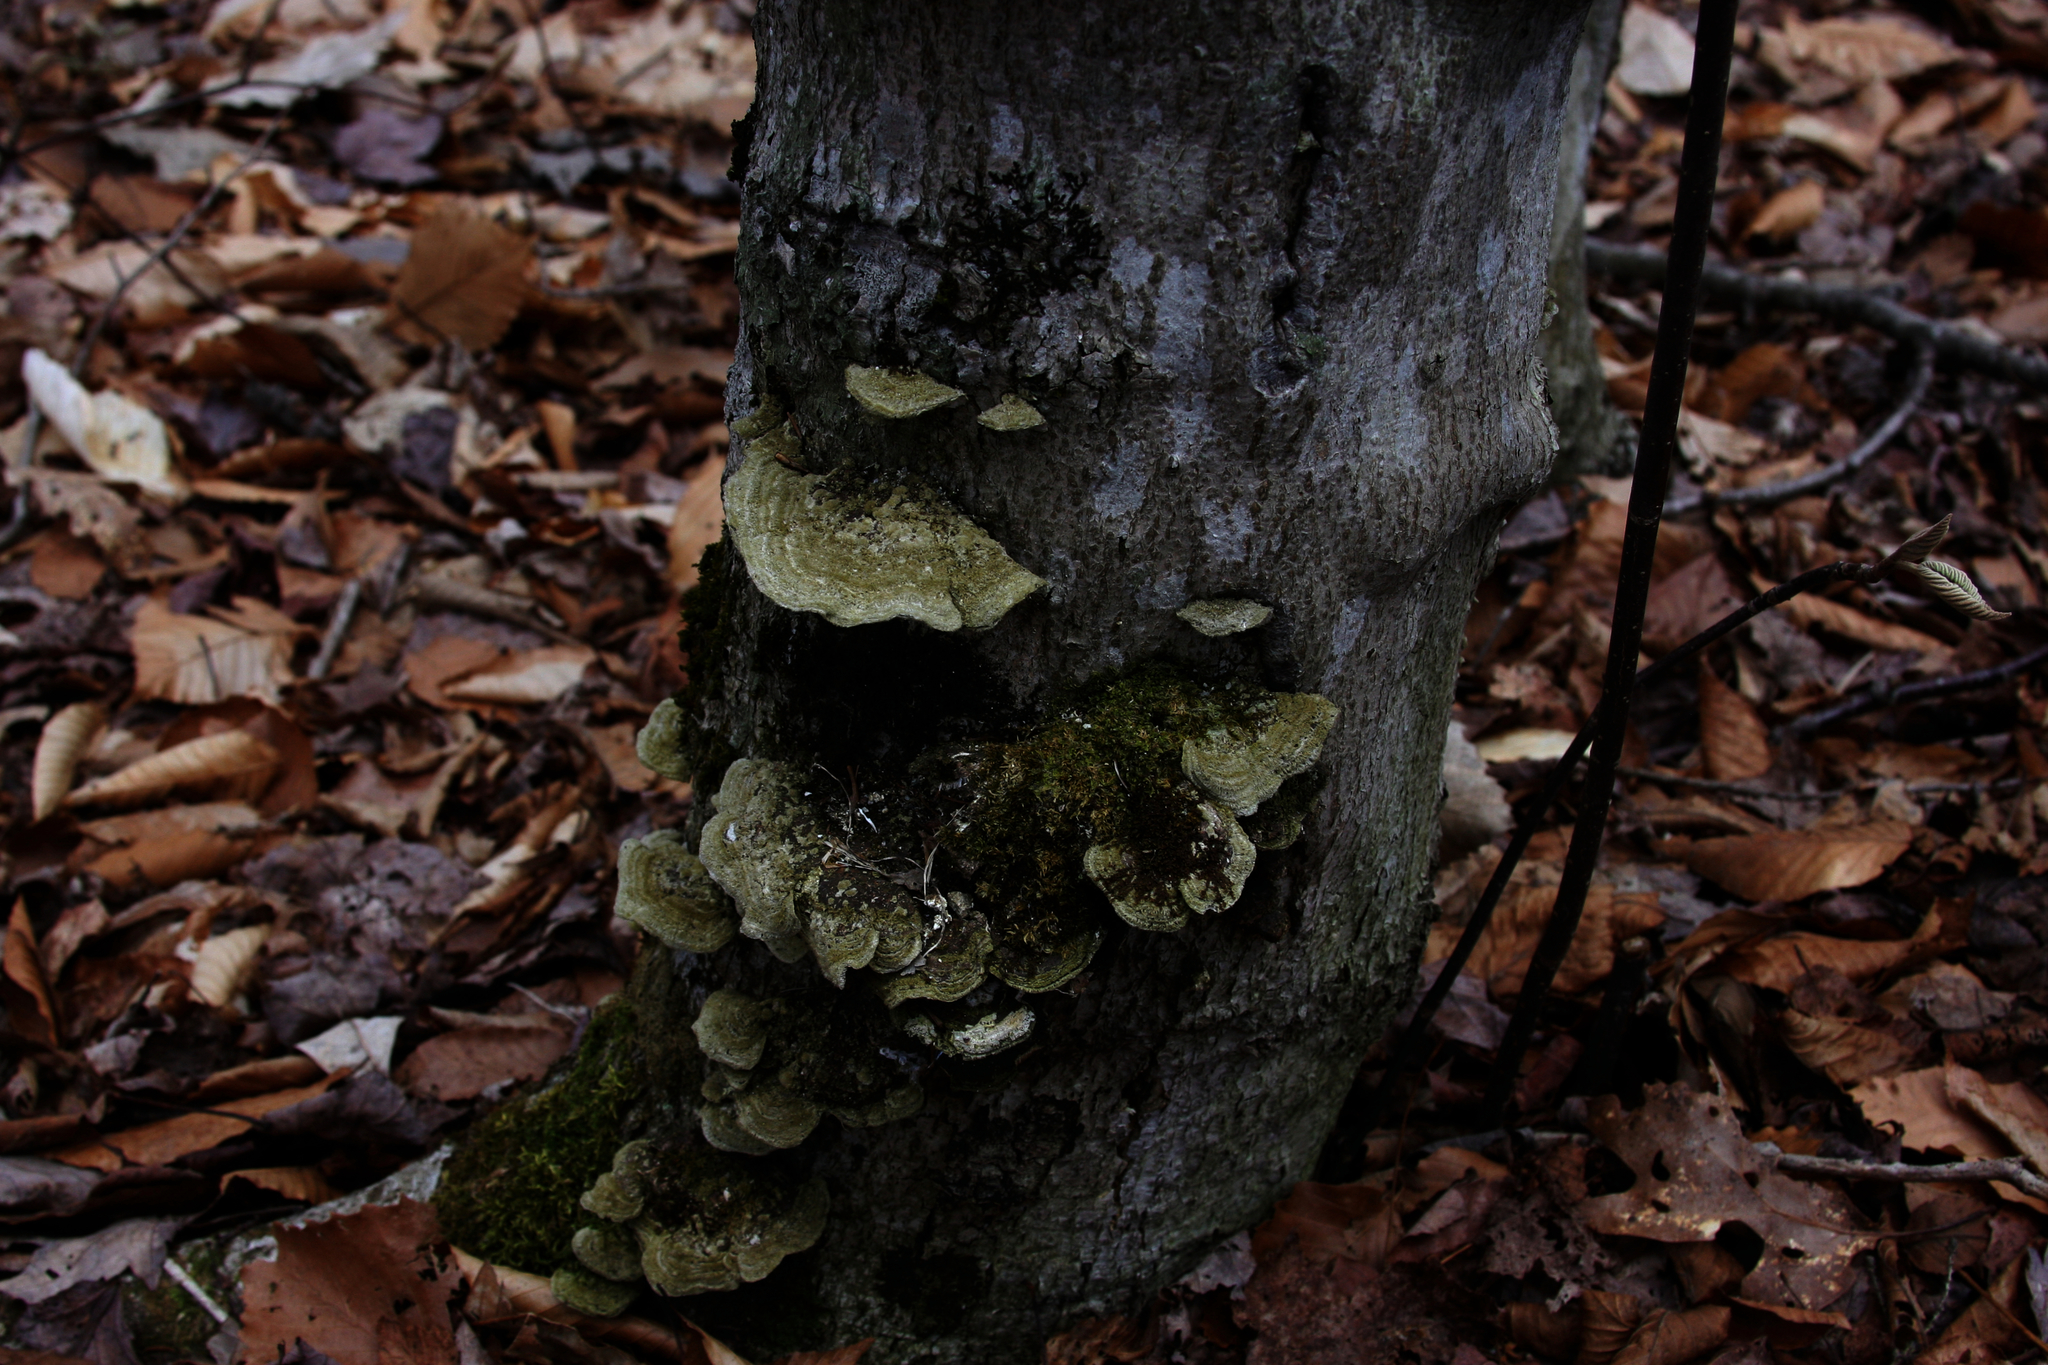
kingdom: Fungi
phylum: Basidiomycota
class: Agaricomycetes
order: Polyporales
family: Cerrenaceae
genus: Cerrena
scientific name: Cerrena unicolor
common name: Mossy maze polypore
